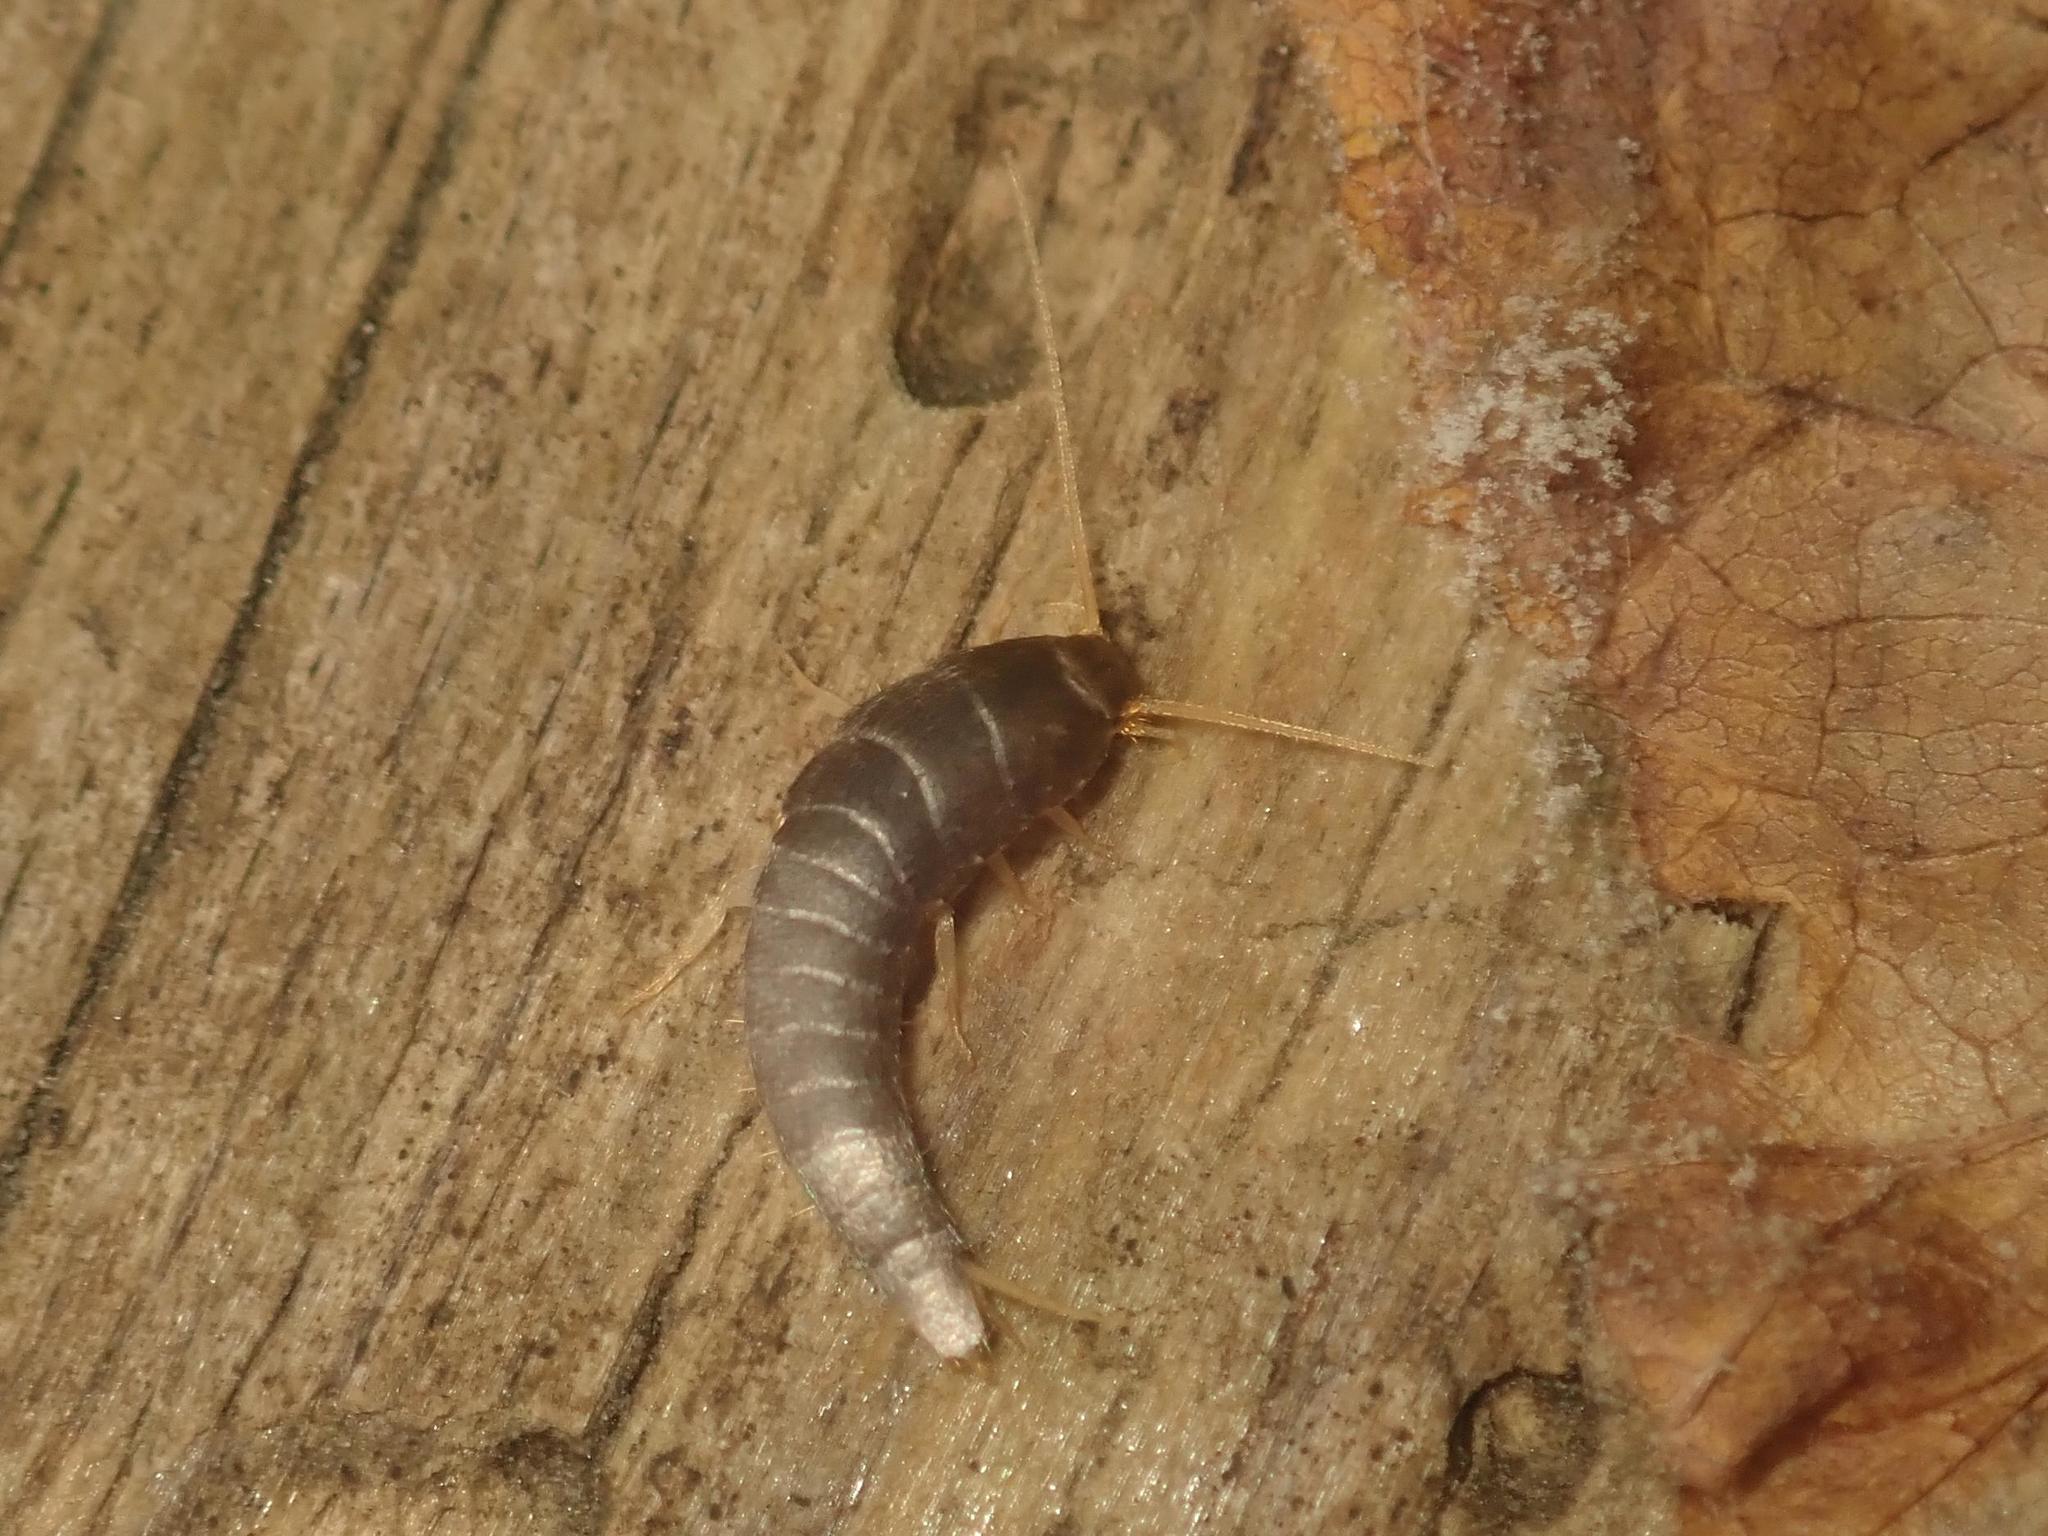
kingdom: Animalia
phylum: Arthropoda
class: Insecta
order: Zygentoma
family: Lepismatidae
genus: Lepisma
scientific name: Lepisma saccharinum
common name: Silverfish
